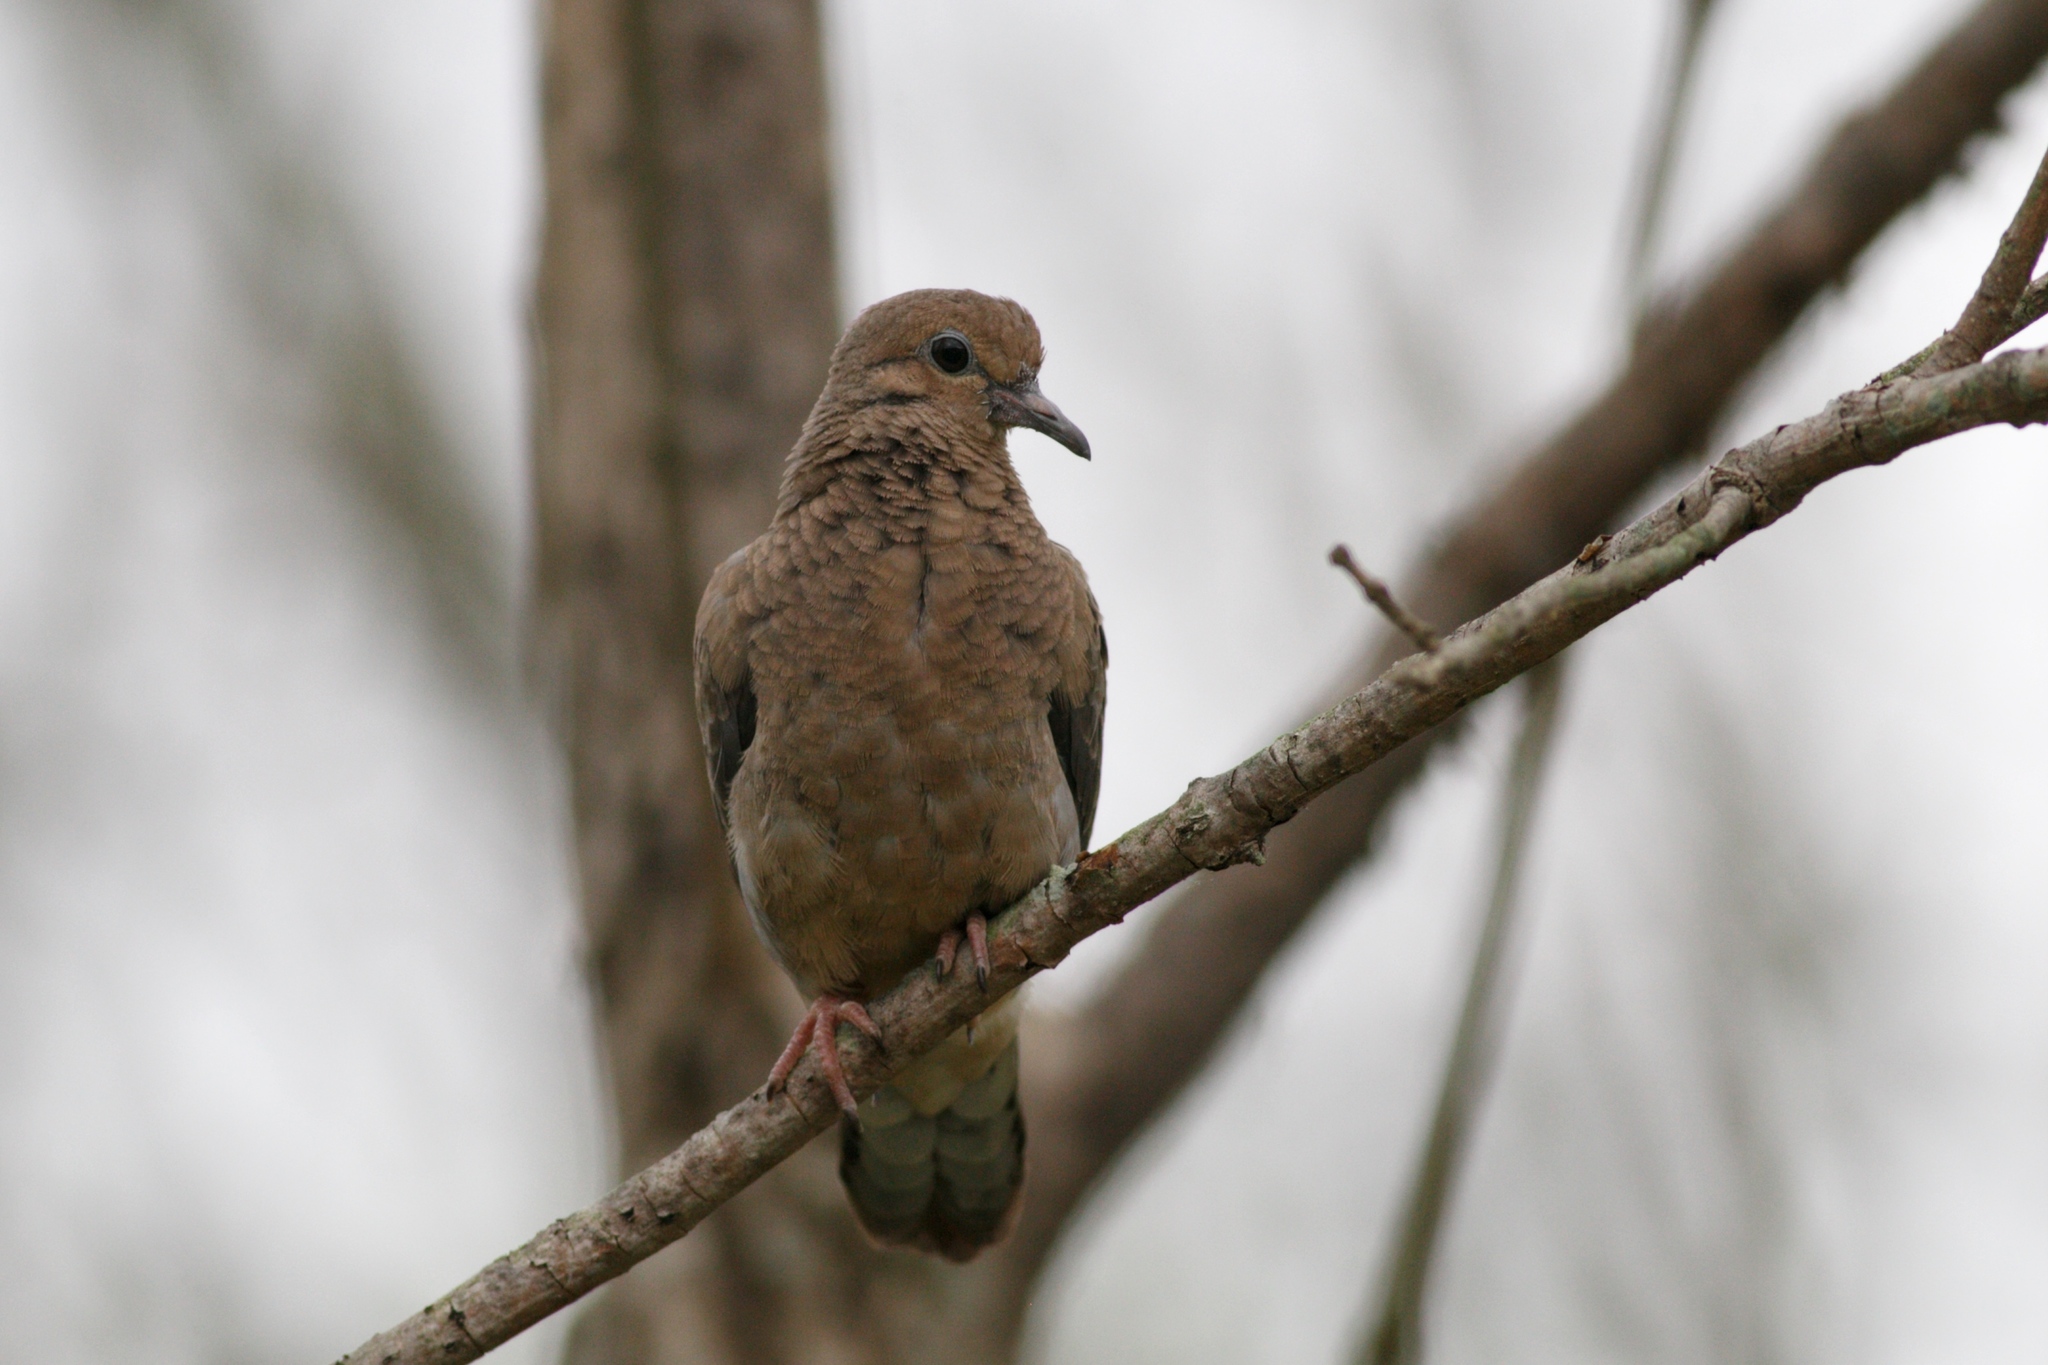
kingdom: Animalia
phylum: Chordata
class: Aves
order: Columbiformes
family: Columbidae
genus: Zenaida
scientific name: Zenaida macroura
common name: Mourning dove
